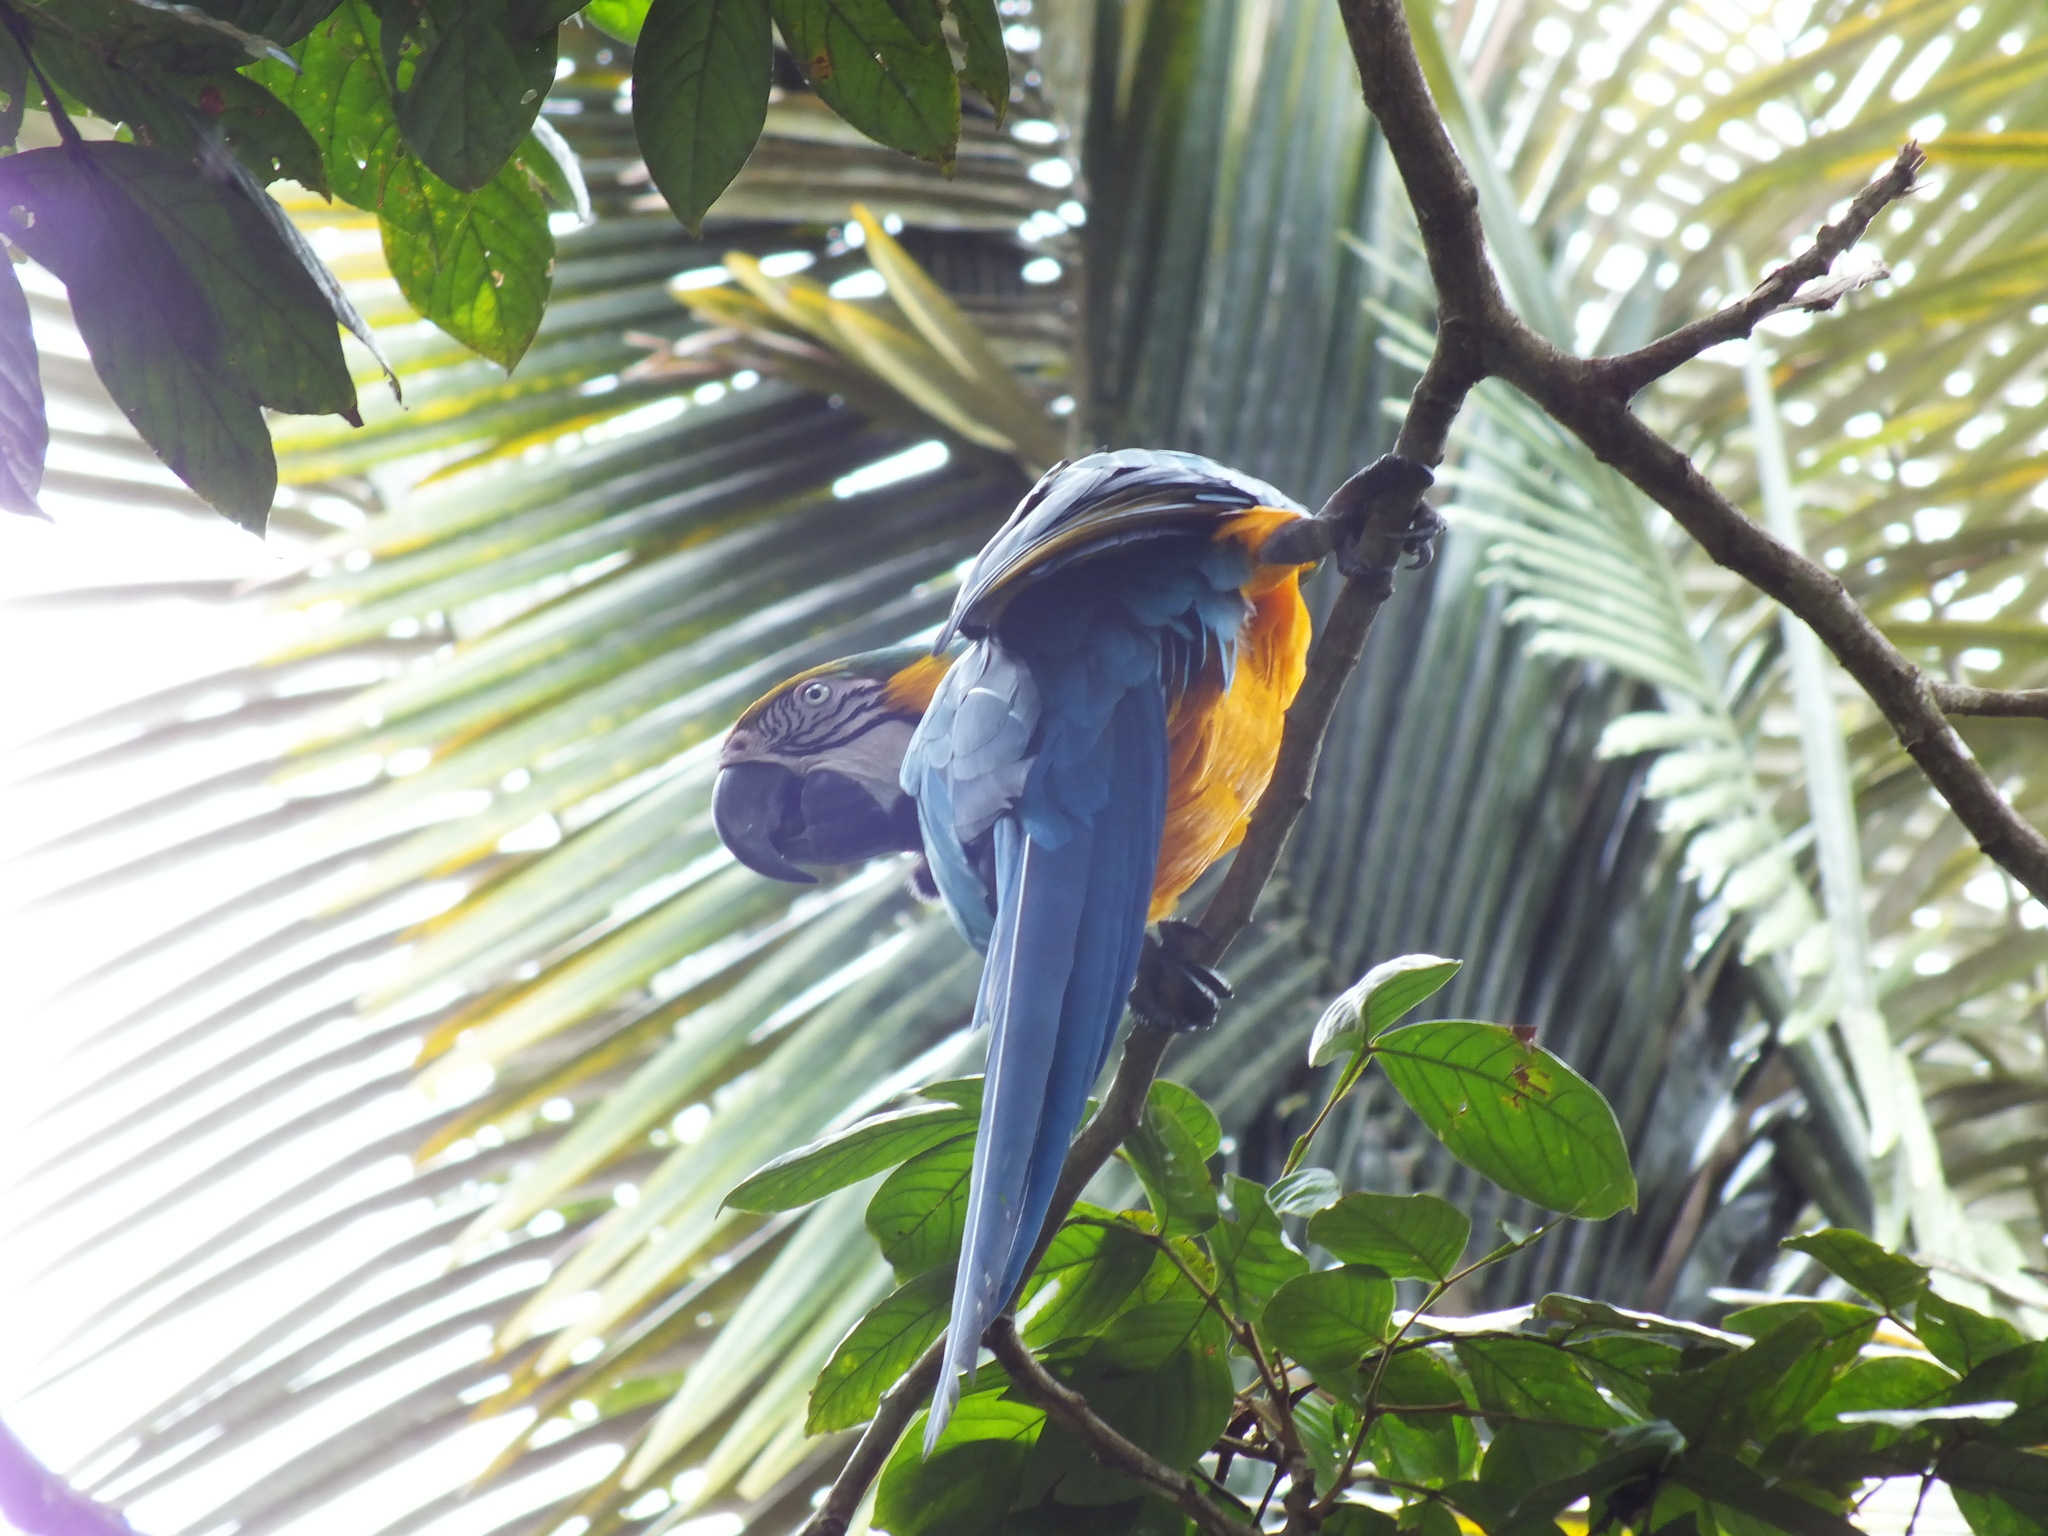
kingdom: Animalia
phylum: Chordata
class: Aves
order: Psittaciformes
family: Psittacidae
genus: Ara
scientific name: Ara ararauna
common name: Blue-and-yellow macaw
